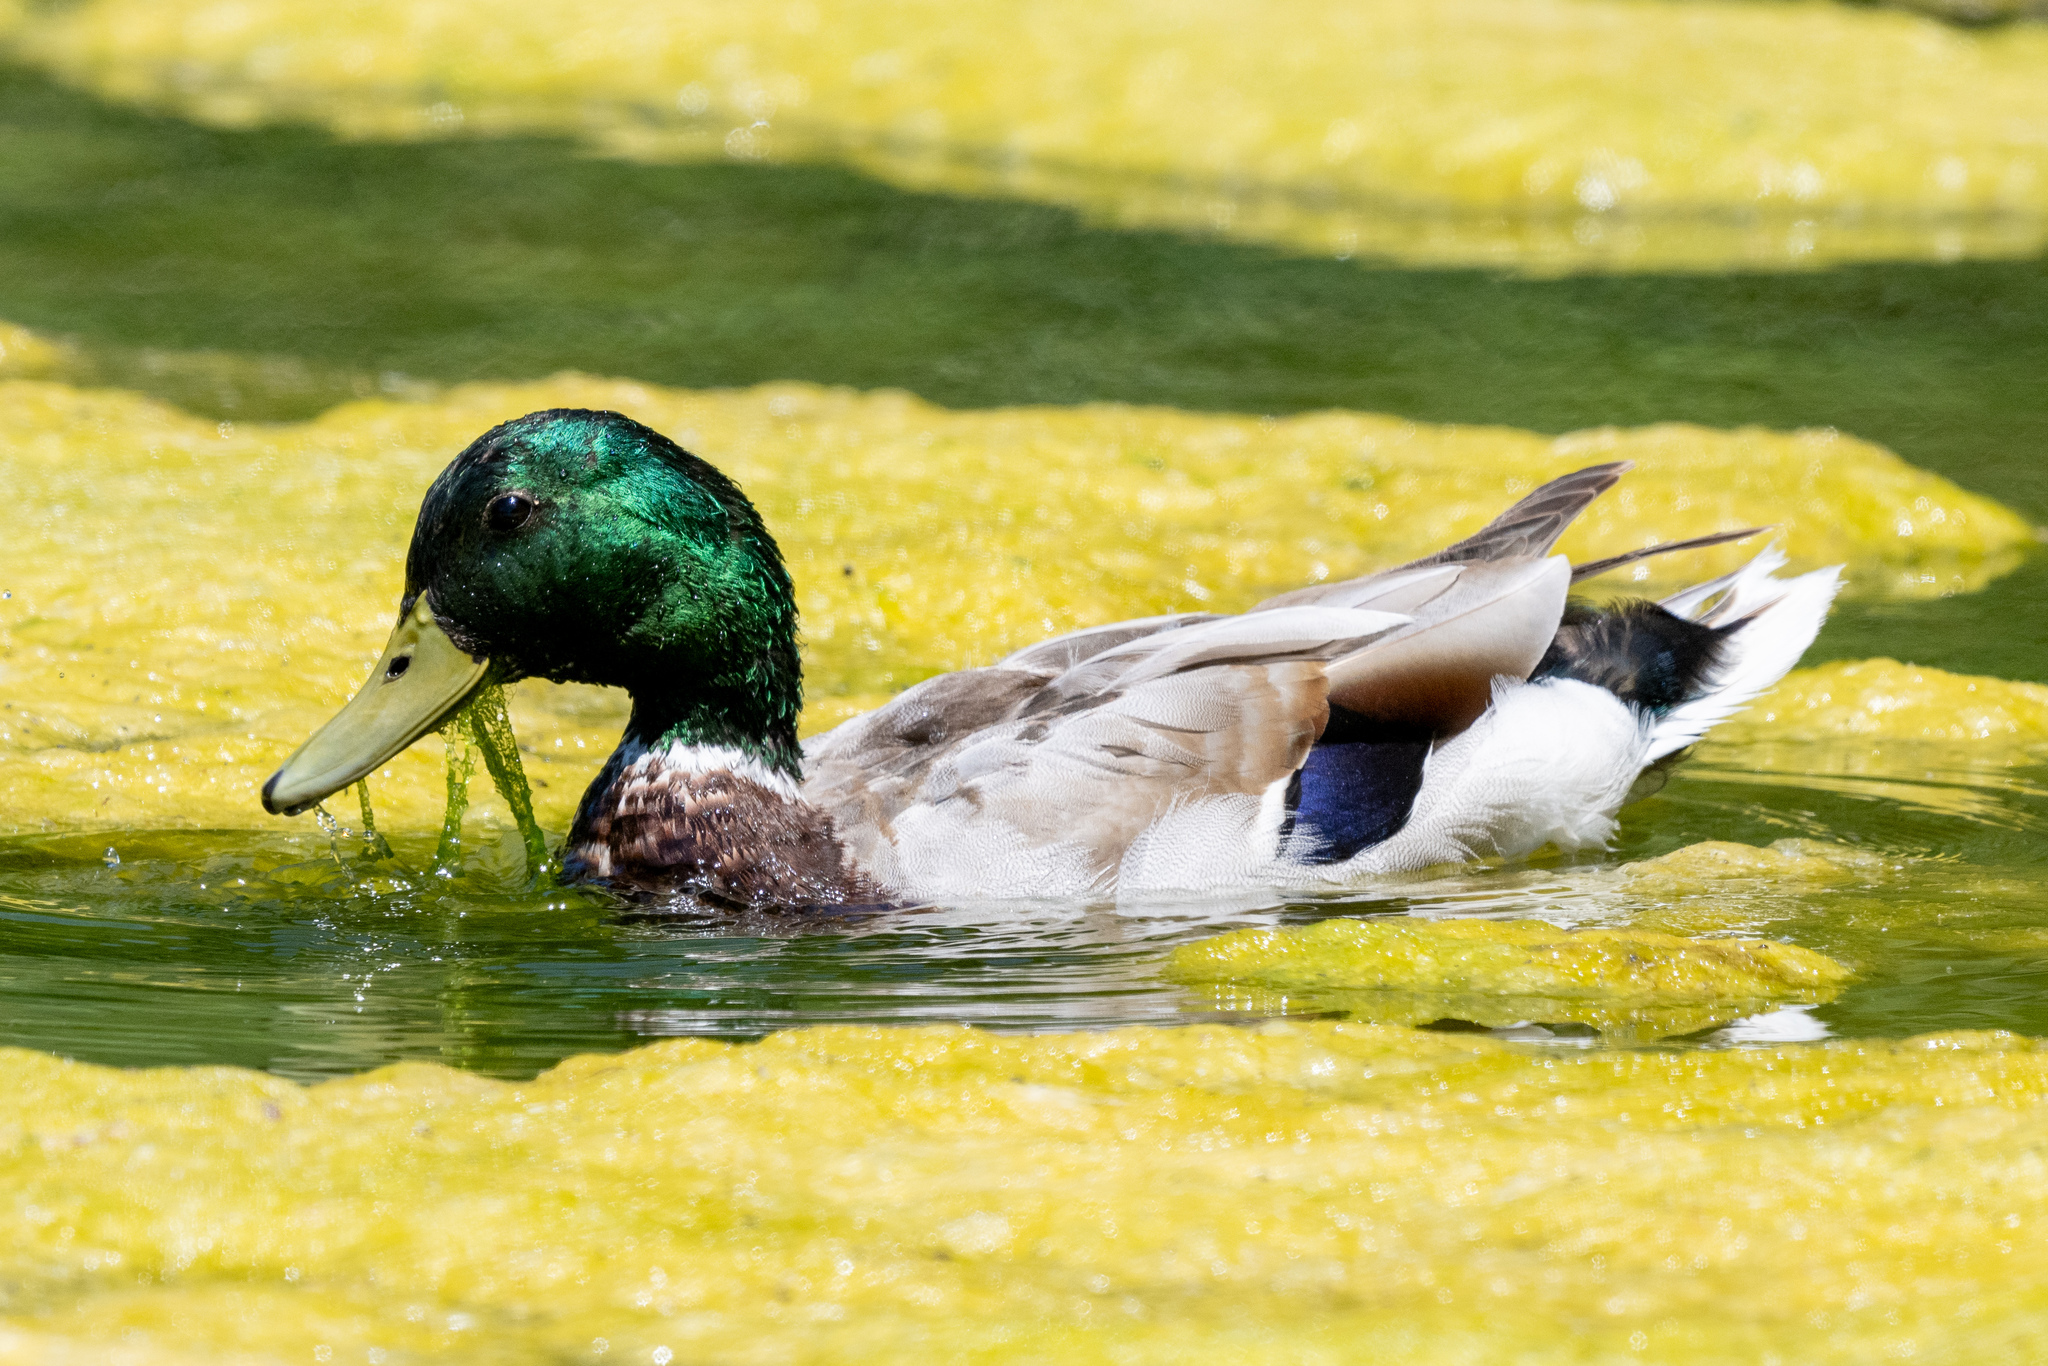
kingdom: Animalia
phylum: Chordata
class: Aves
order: Anseriformes
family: Anatidae
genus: Anas
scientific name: Anas platyrhynchos
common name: Mallard
